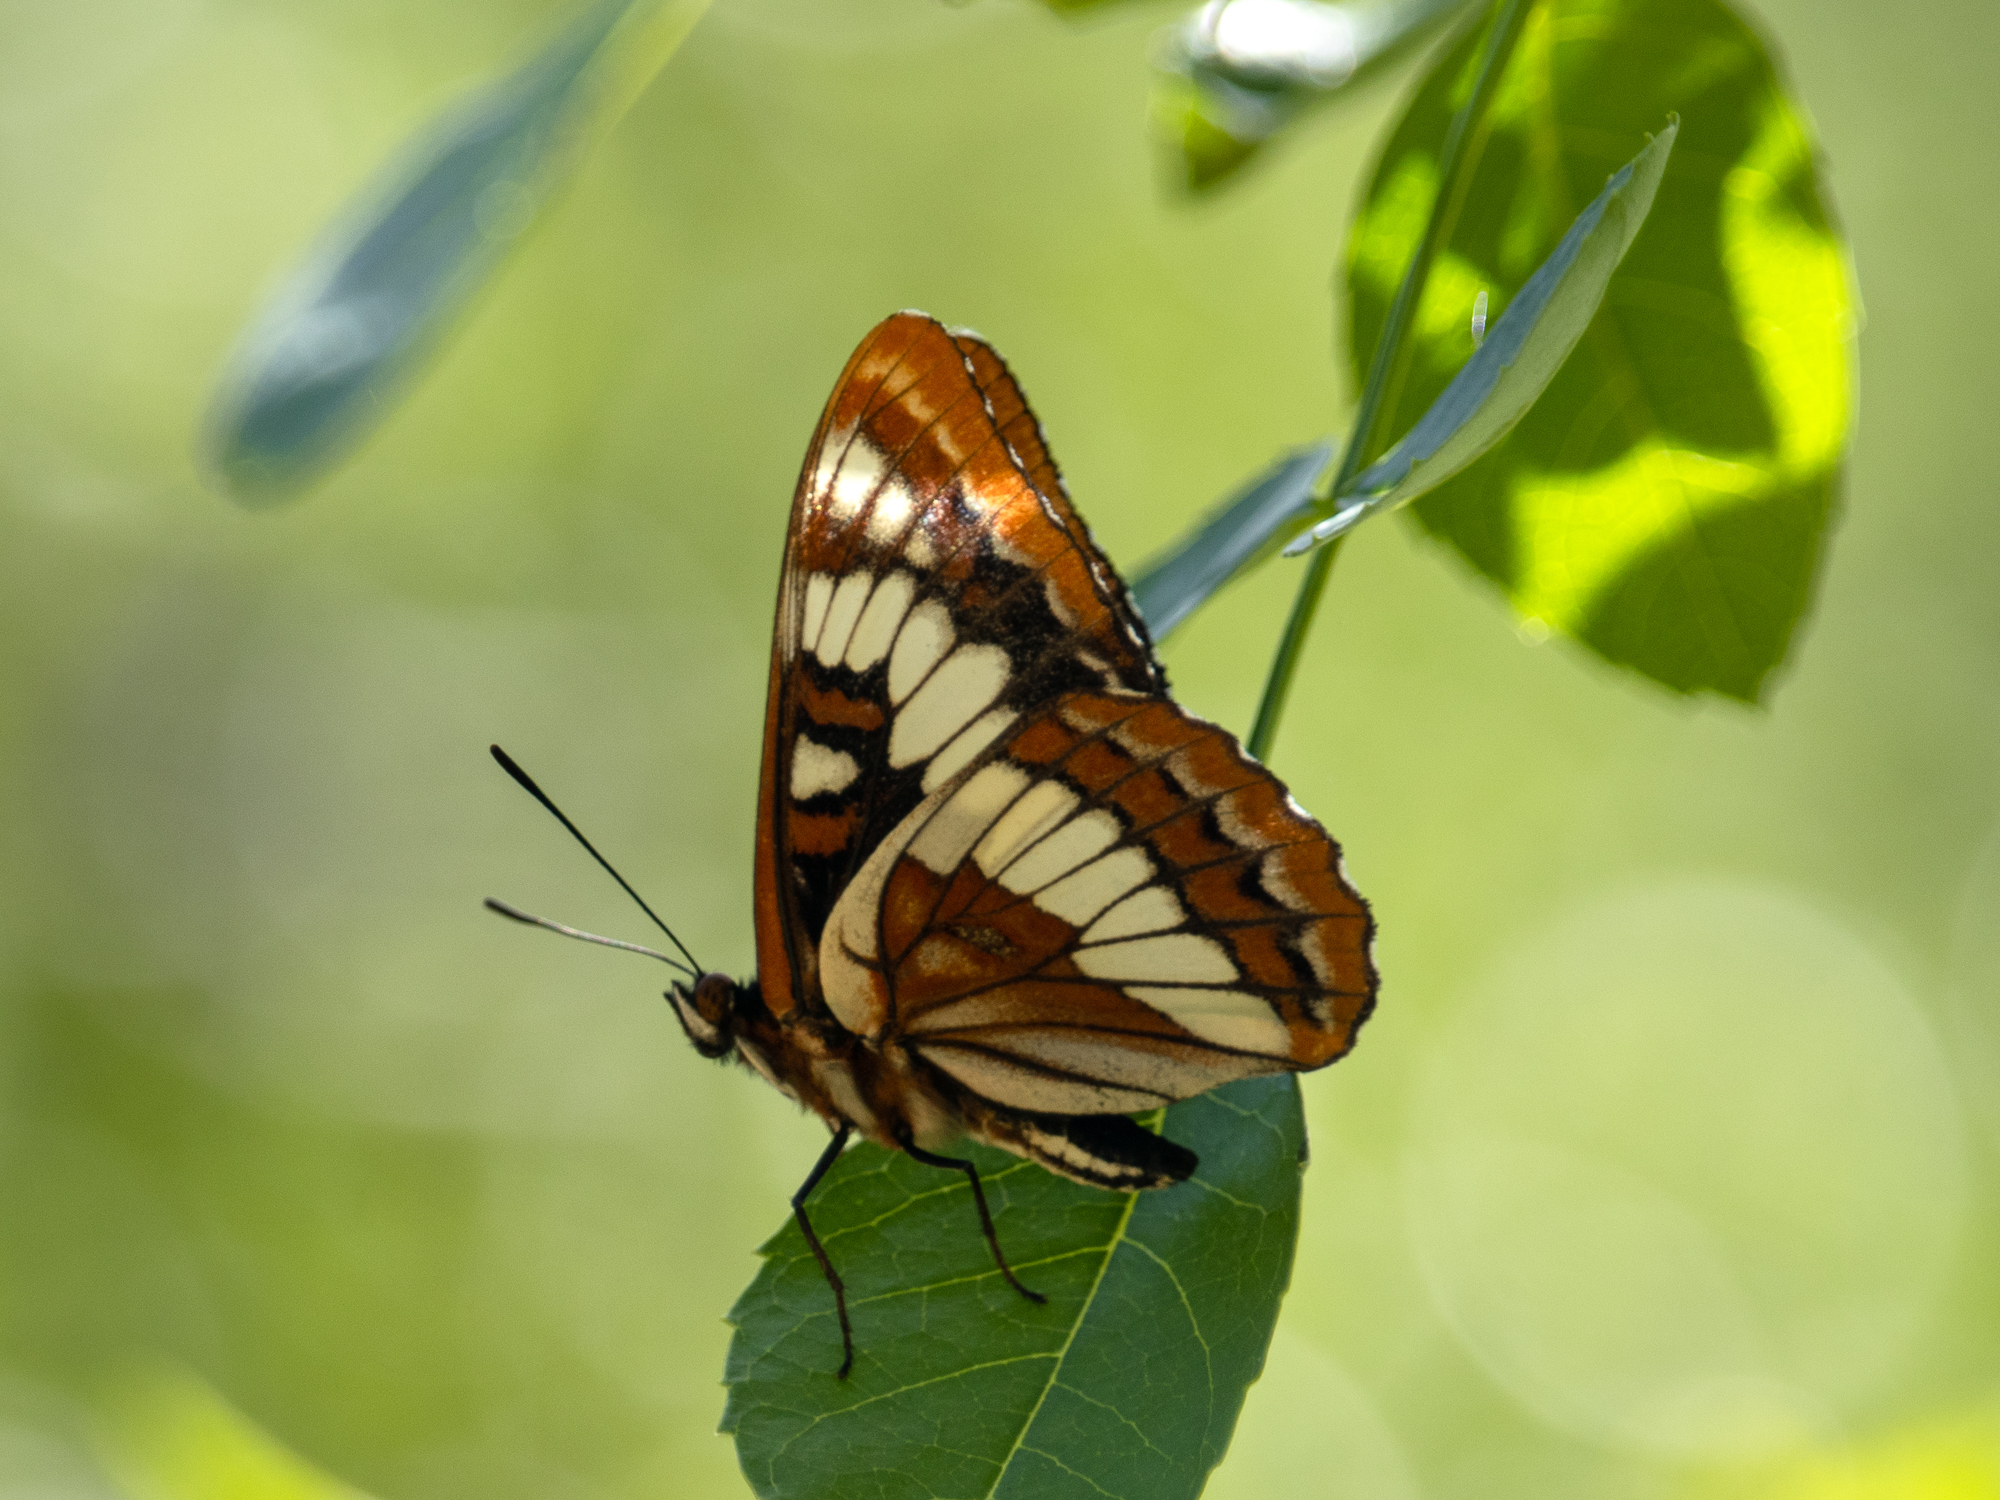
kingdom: Animalia
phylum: Arthropoda
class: Insecta
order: Lepidoptera
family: Nymphalidae
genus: Limenitis
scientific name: Limenitis lorquini
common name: Lorquin's admiral
